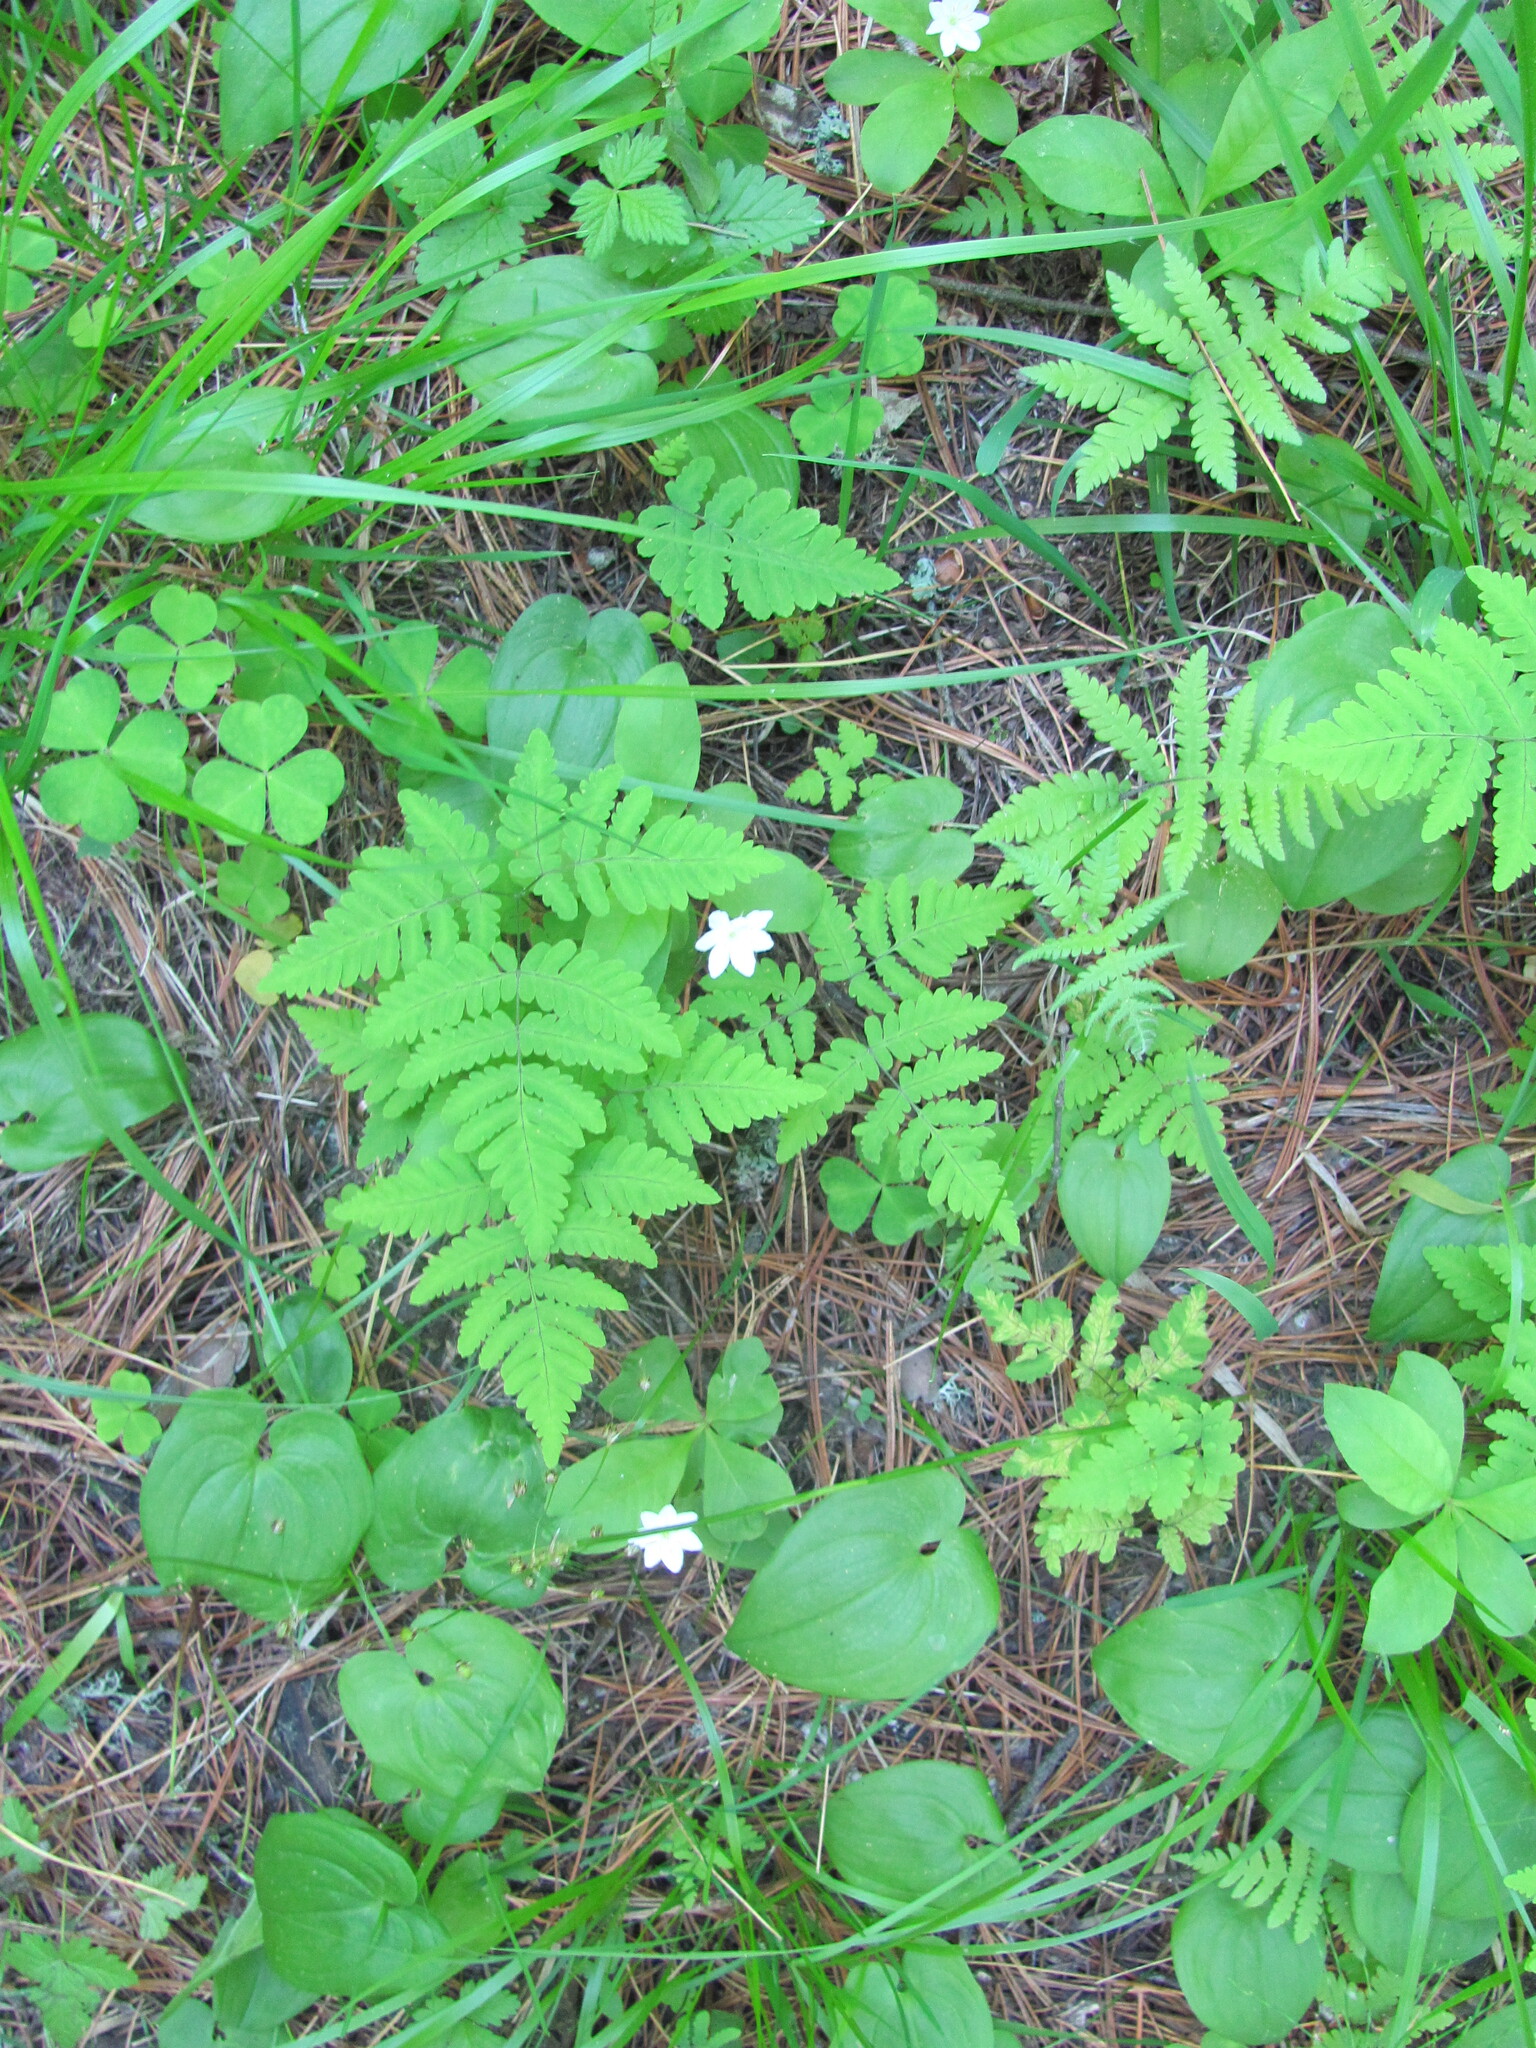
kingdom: Plantae
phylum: Tracheophyta
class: Magnoliopsida
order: Ericales
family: Primulaceae
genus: Lysimachia
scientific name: Lysimachia europaea
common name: Arctic starflower
